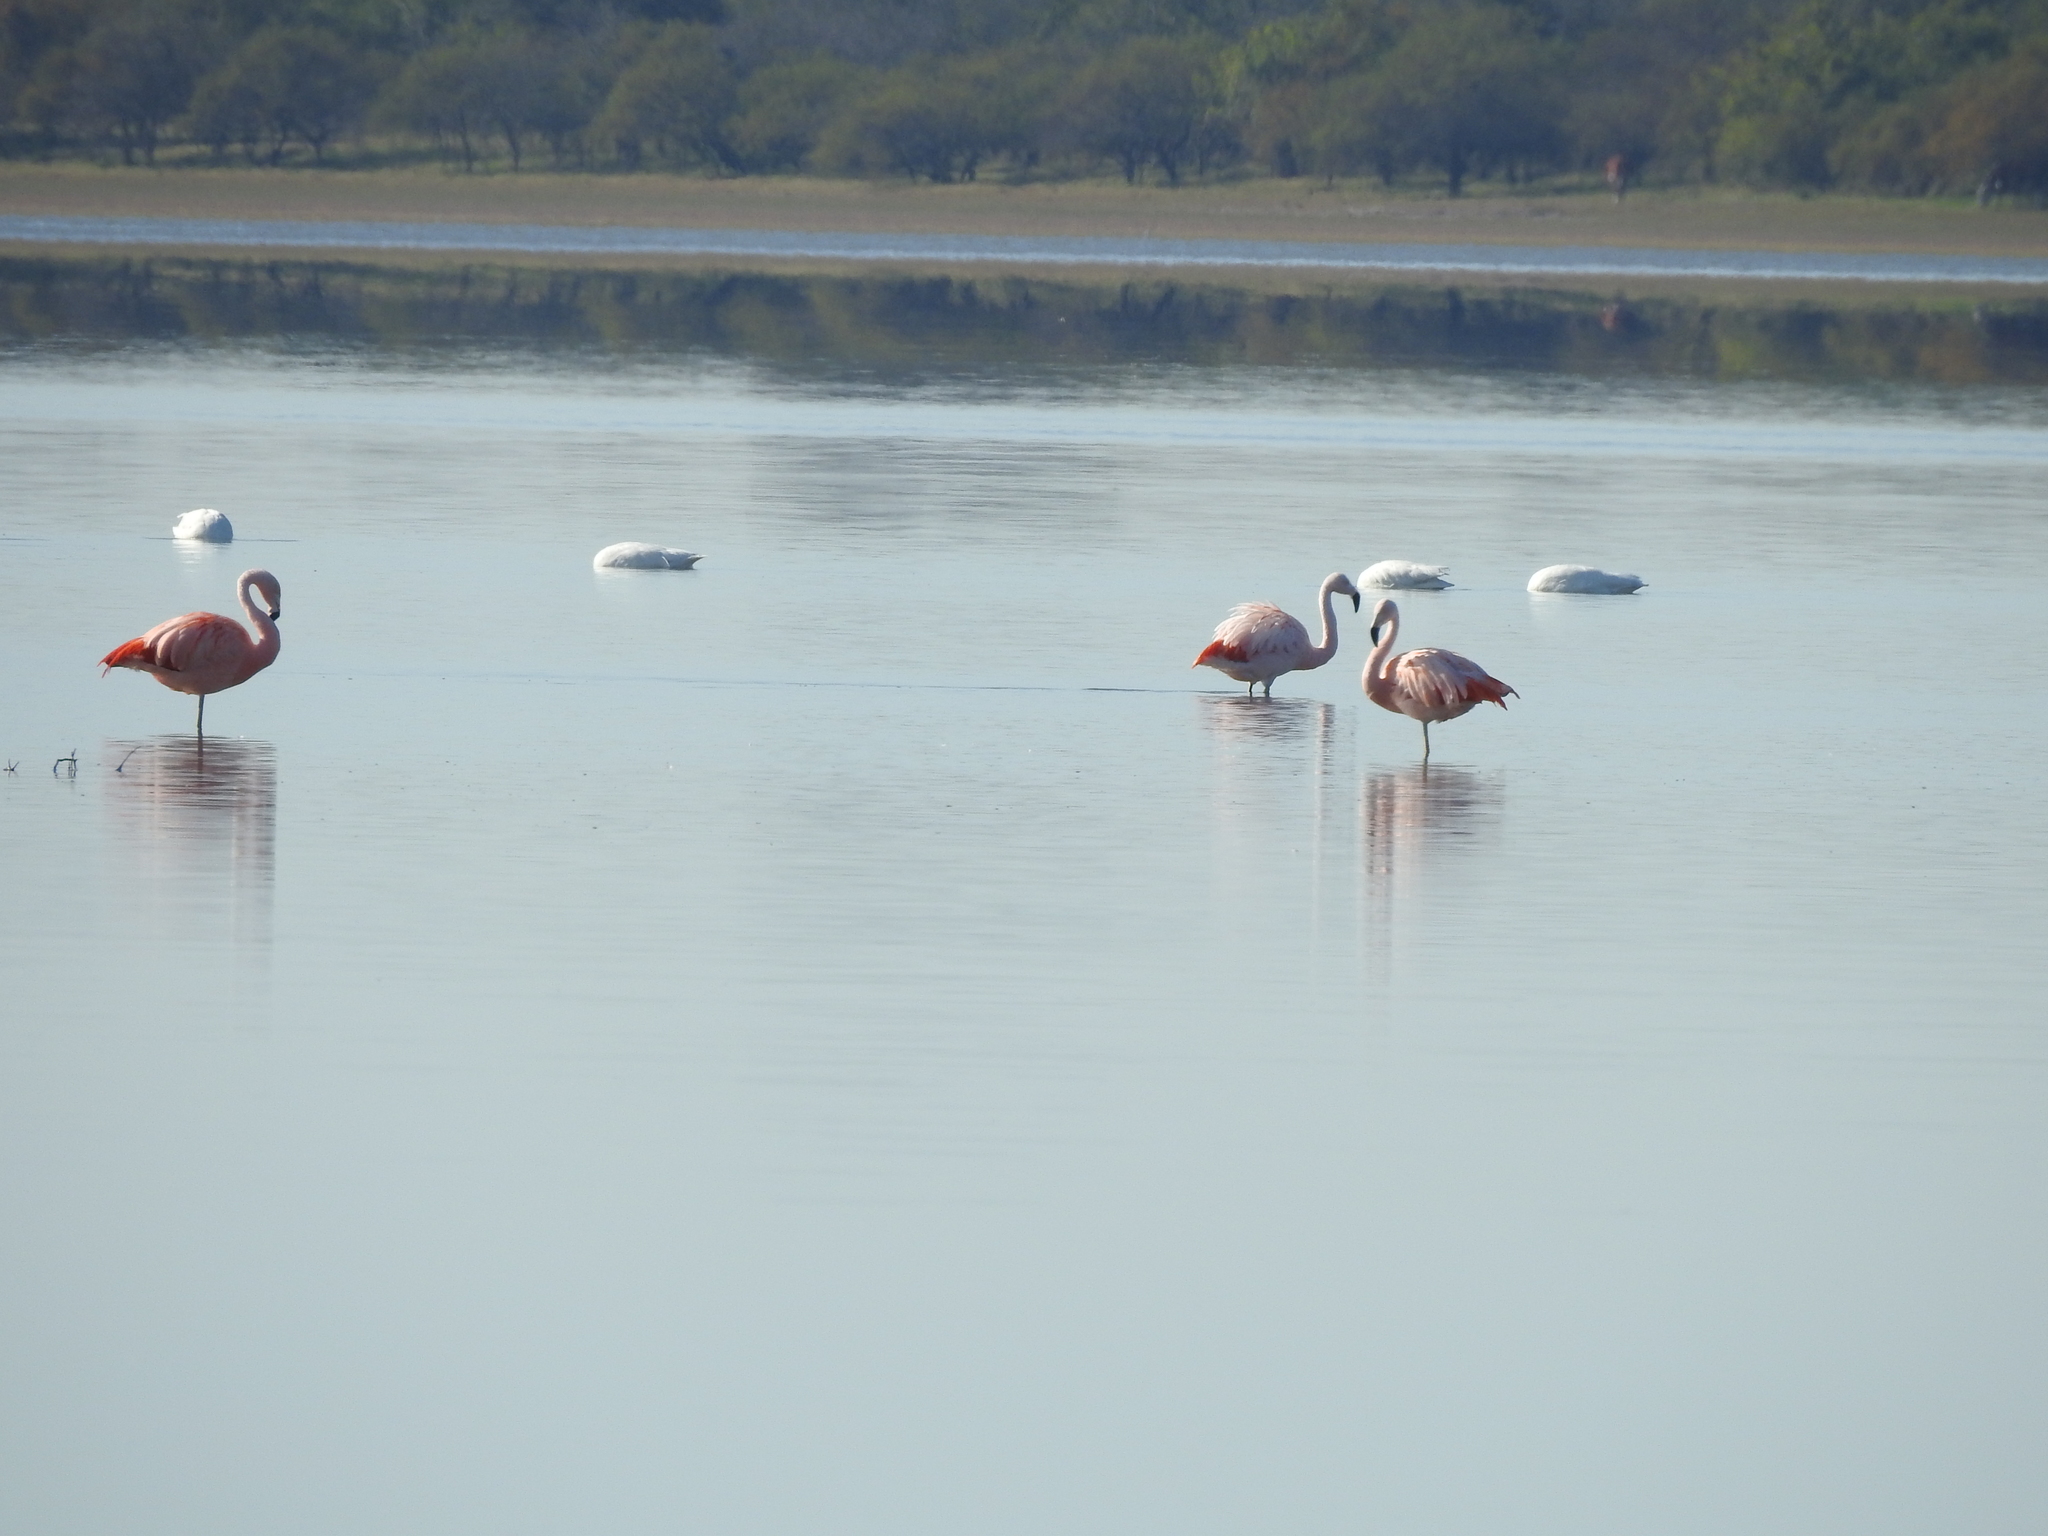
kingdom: Animalia
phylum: Chordata
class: Aves
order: Anseriformes
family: Anatidae
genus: Coscoroba
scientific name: Coscoroba coscoroba
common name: Coscoroba swan
